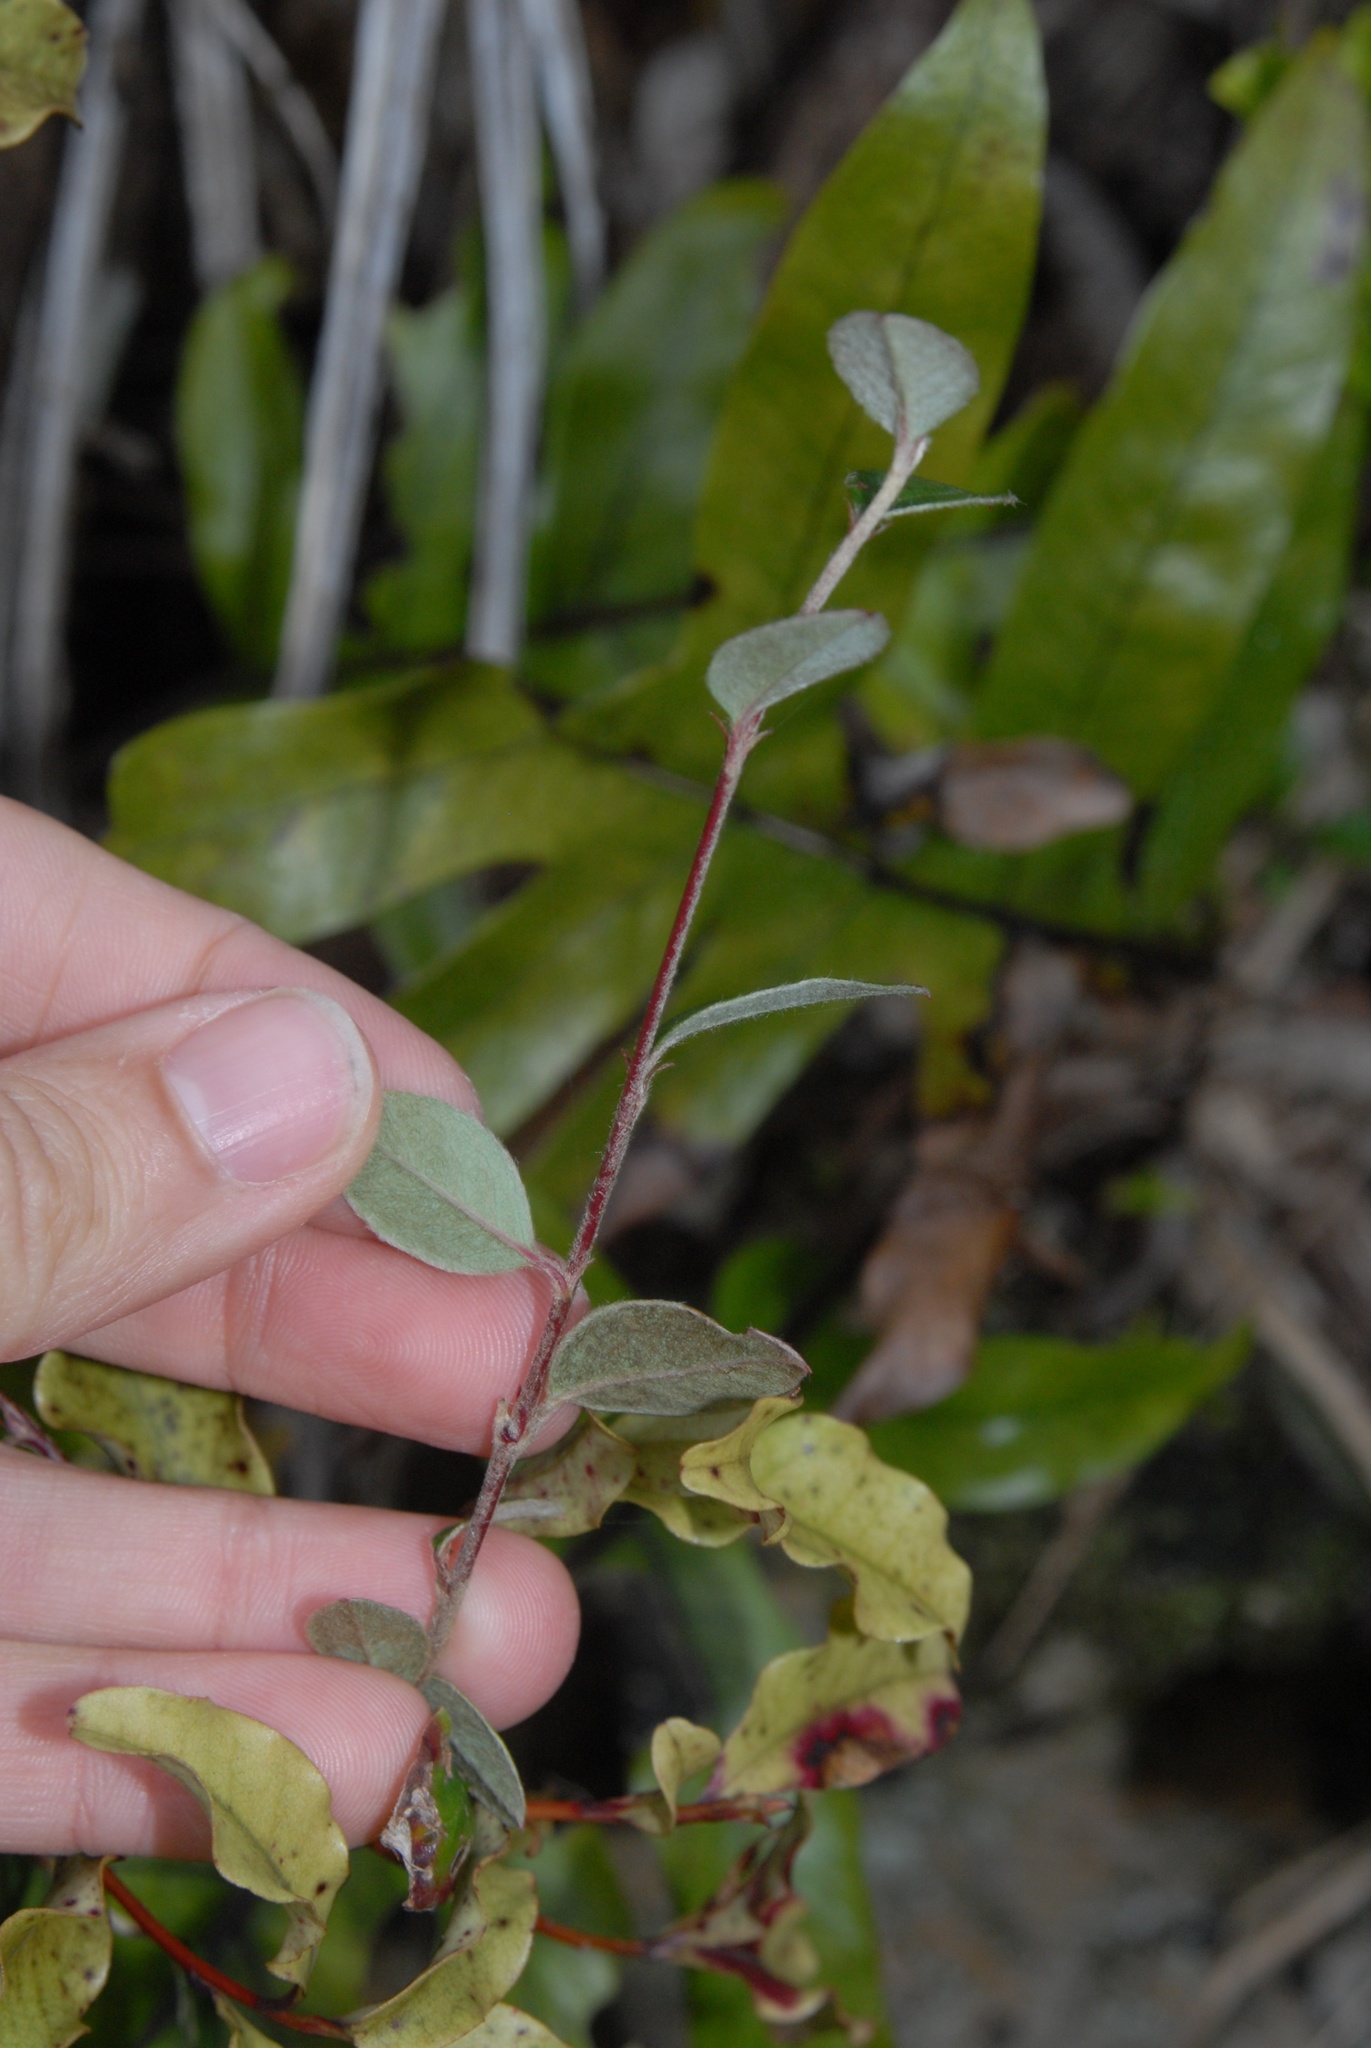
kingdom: Plantae
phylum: Tracheophyta
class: Magnoliopsida
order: Rosales
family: Rosaceae
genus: Cotoneaster
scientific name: Cotoneaster glaucophyllus
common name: Glaucous cotoneaster
